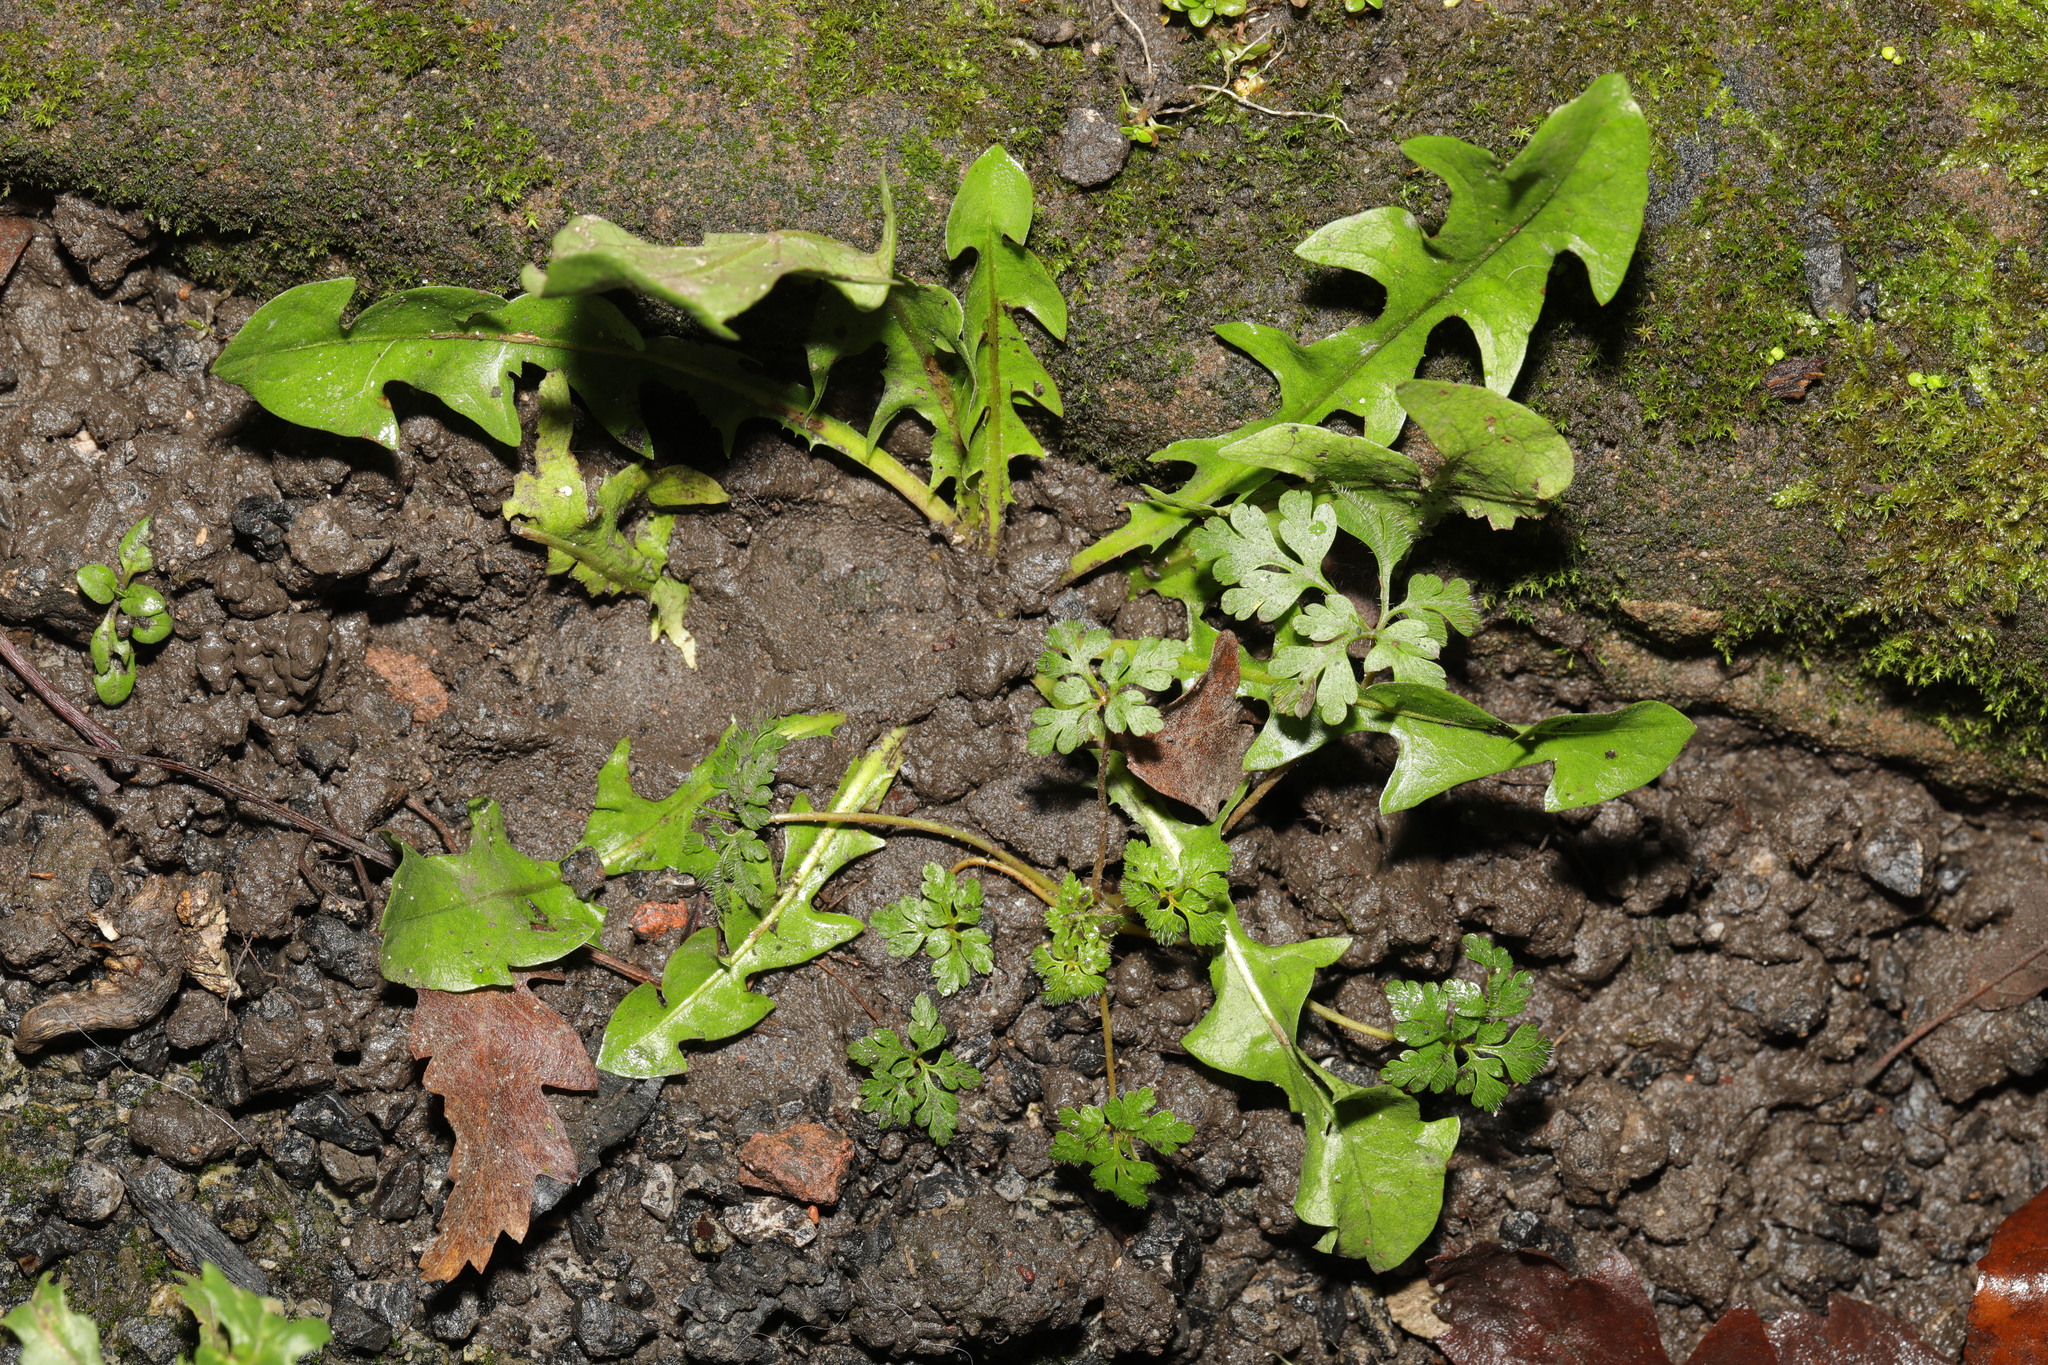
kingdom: Plantae
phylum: Tracheophyta
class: Magnoliopsida
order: Asterales
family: Asteraceae
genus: Taraxacum
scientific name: Taraxacum officinale
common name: Common dandelion
